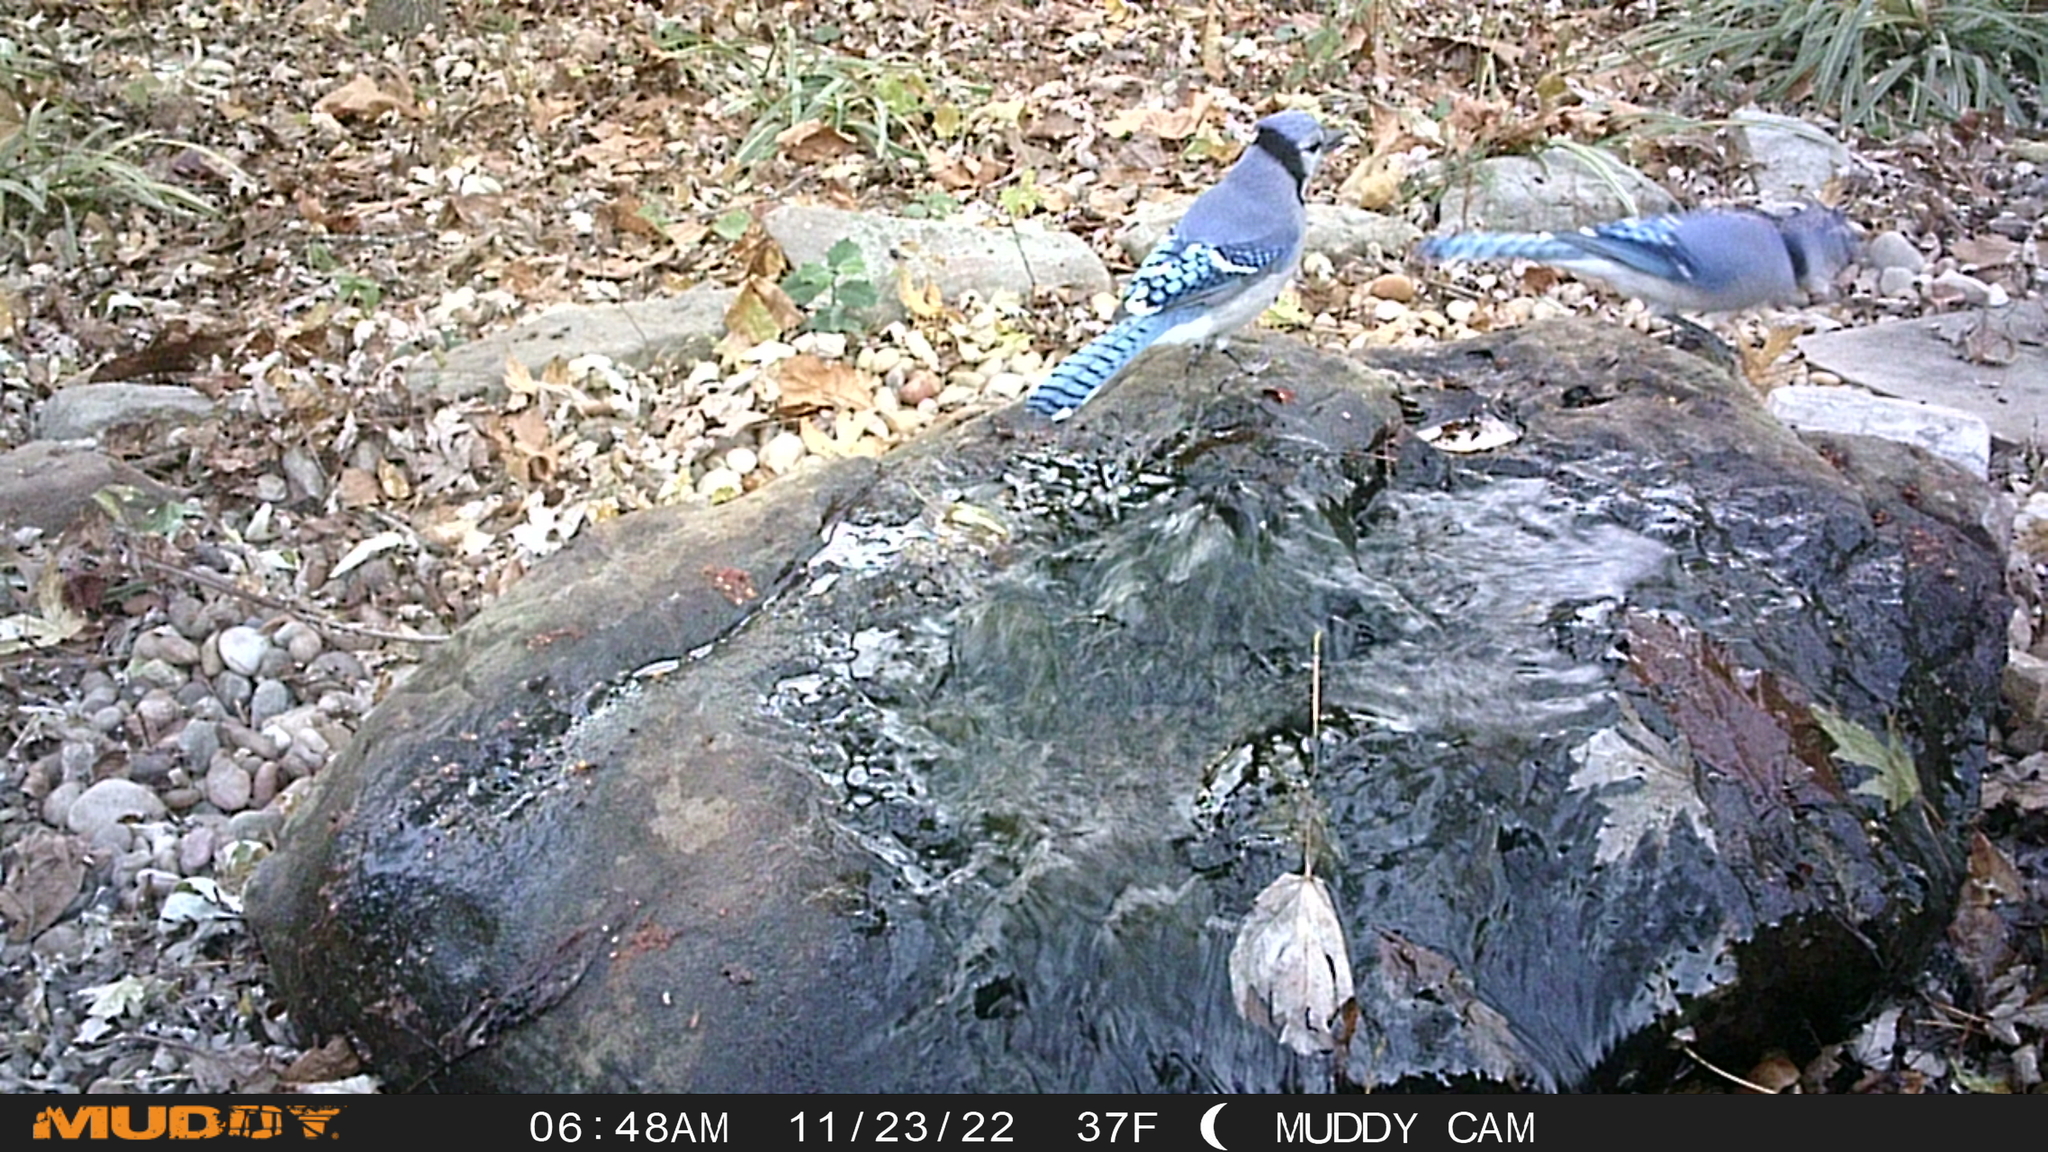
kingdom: Animalia
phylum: Chordata
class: Aves
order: Passeriformes
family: Corvidae
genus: Cyanocitta
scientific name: Cyanocitta cristata
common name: Blue jay
